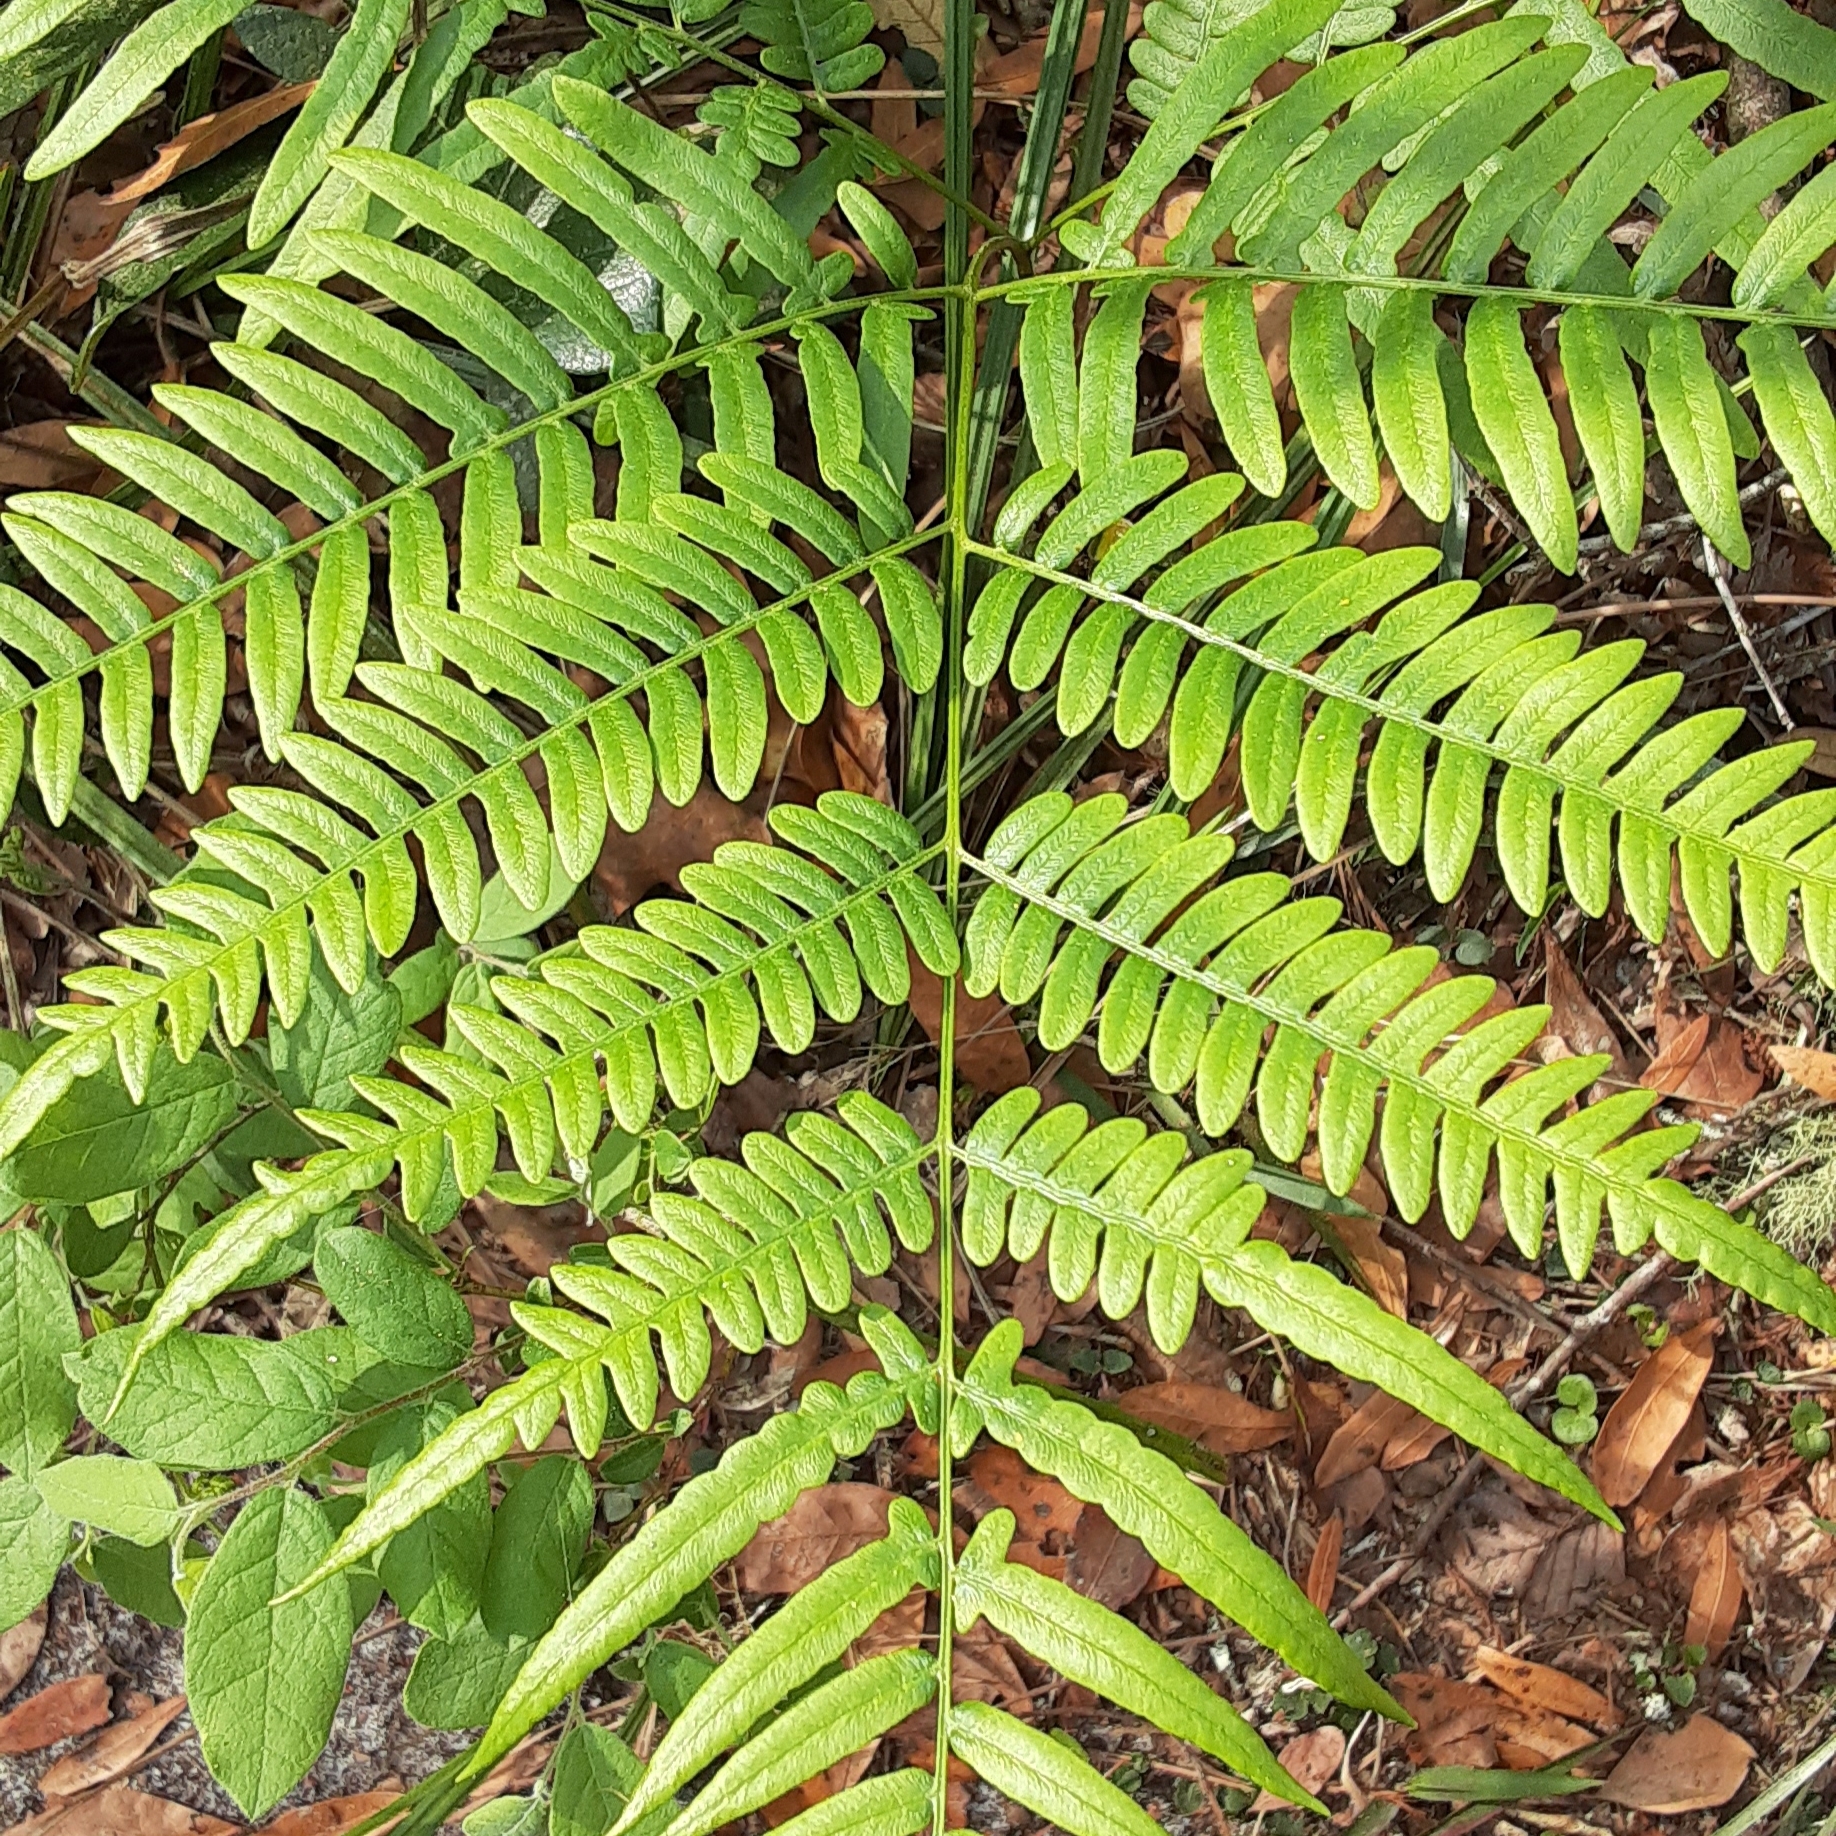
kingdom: Plantae
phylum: Tracheophyta
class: Polypodiopsida
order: Polypodiales
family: Dennstaedtiaceae
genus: Pteridium
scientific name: Pteridium aquilinum
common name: Bracken
